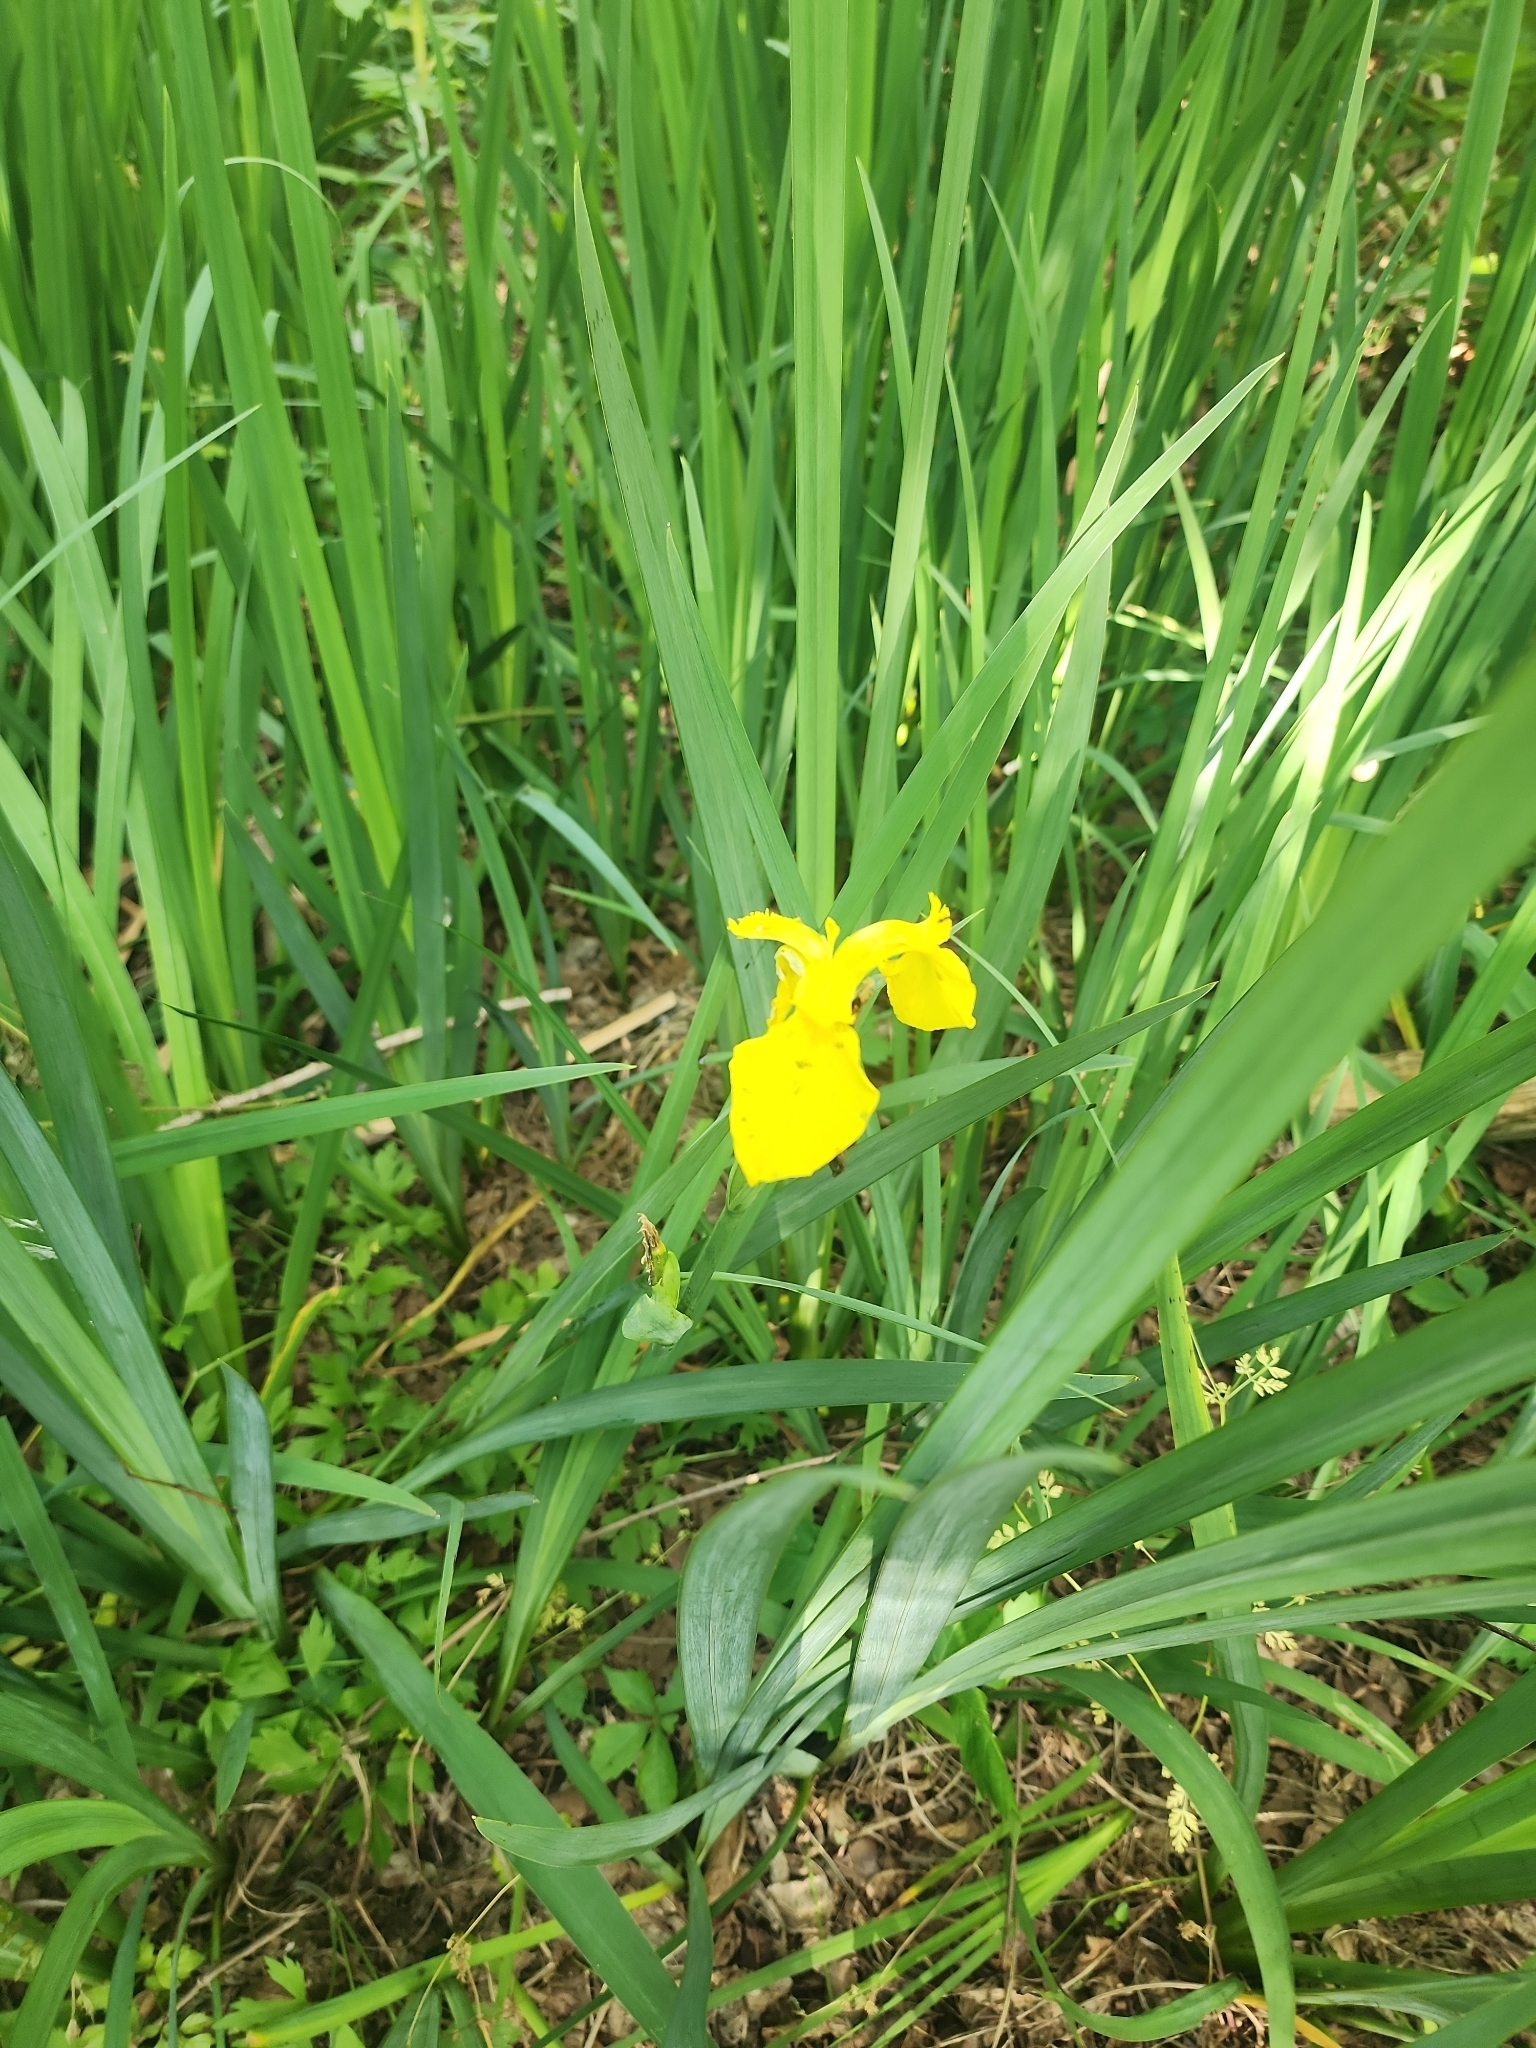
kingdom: Plantae
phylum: Tracheophyta
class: Liliopsida
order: Asparagales
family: Iridaceae
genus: Iris
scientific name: Iris pseudacorus
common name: Yellow flag
